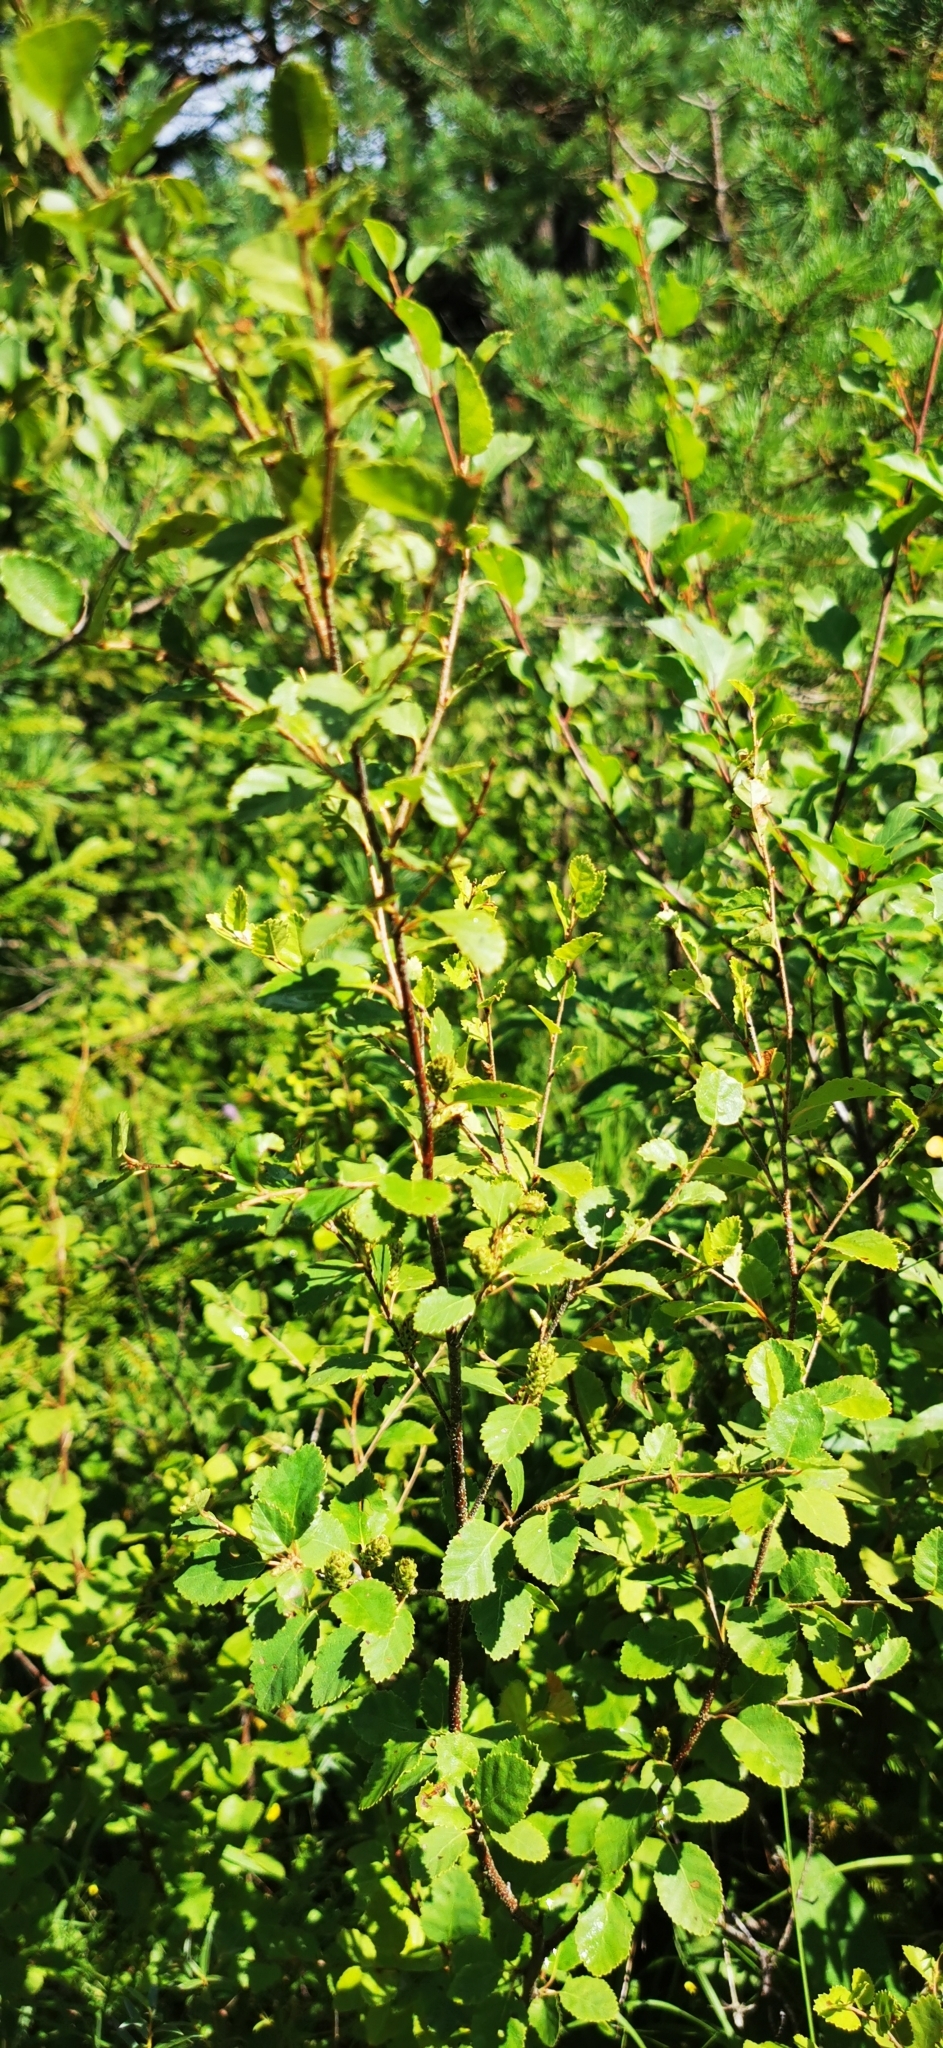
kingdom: Plantae
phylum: Tracheophyta
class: Magnoliopsida
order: Fagales
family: Betulaceae
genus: Betula
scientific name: Betula humilis
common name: Shrubby birch
